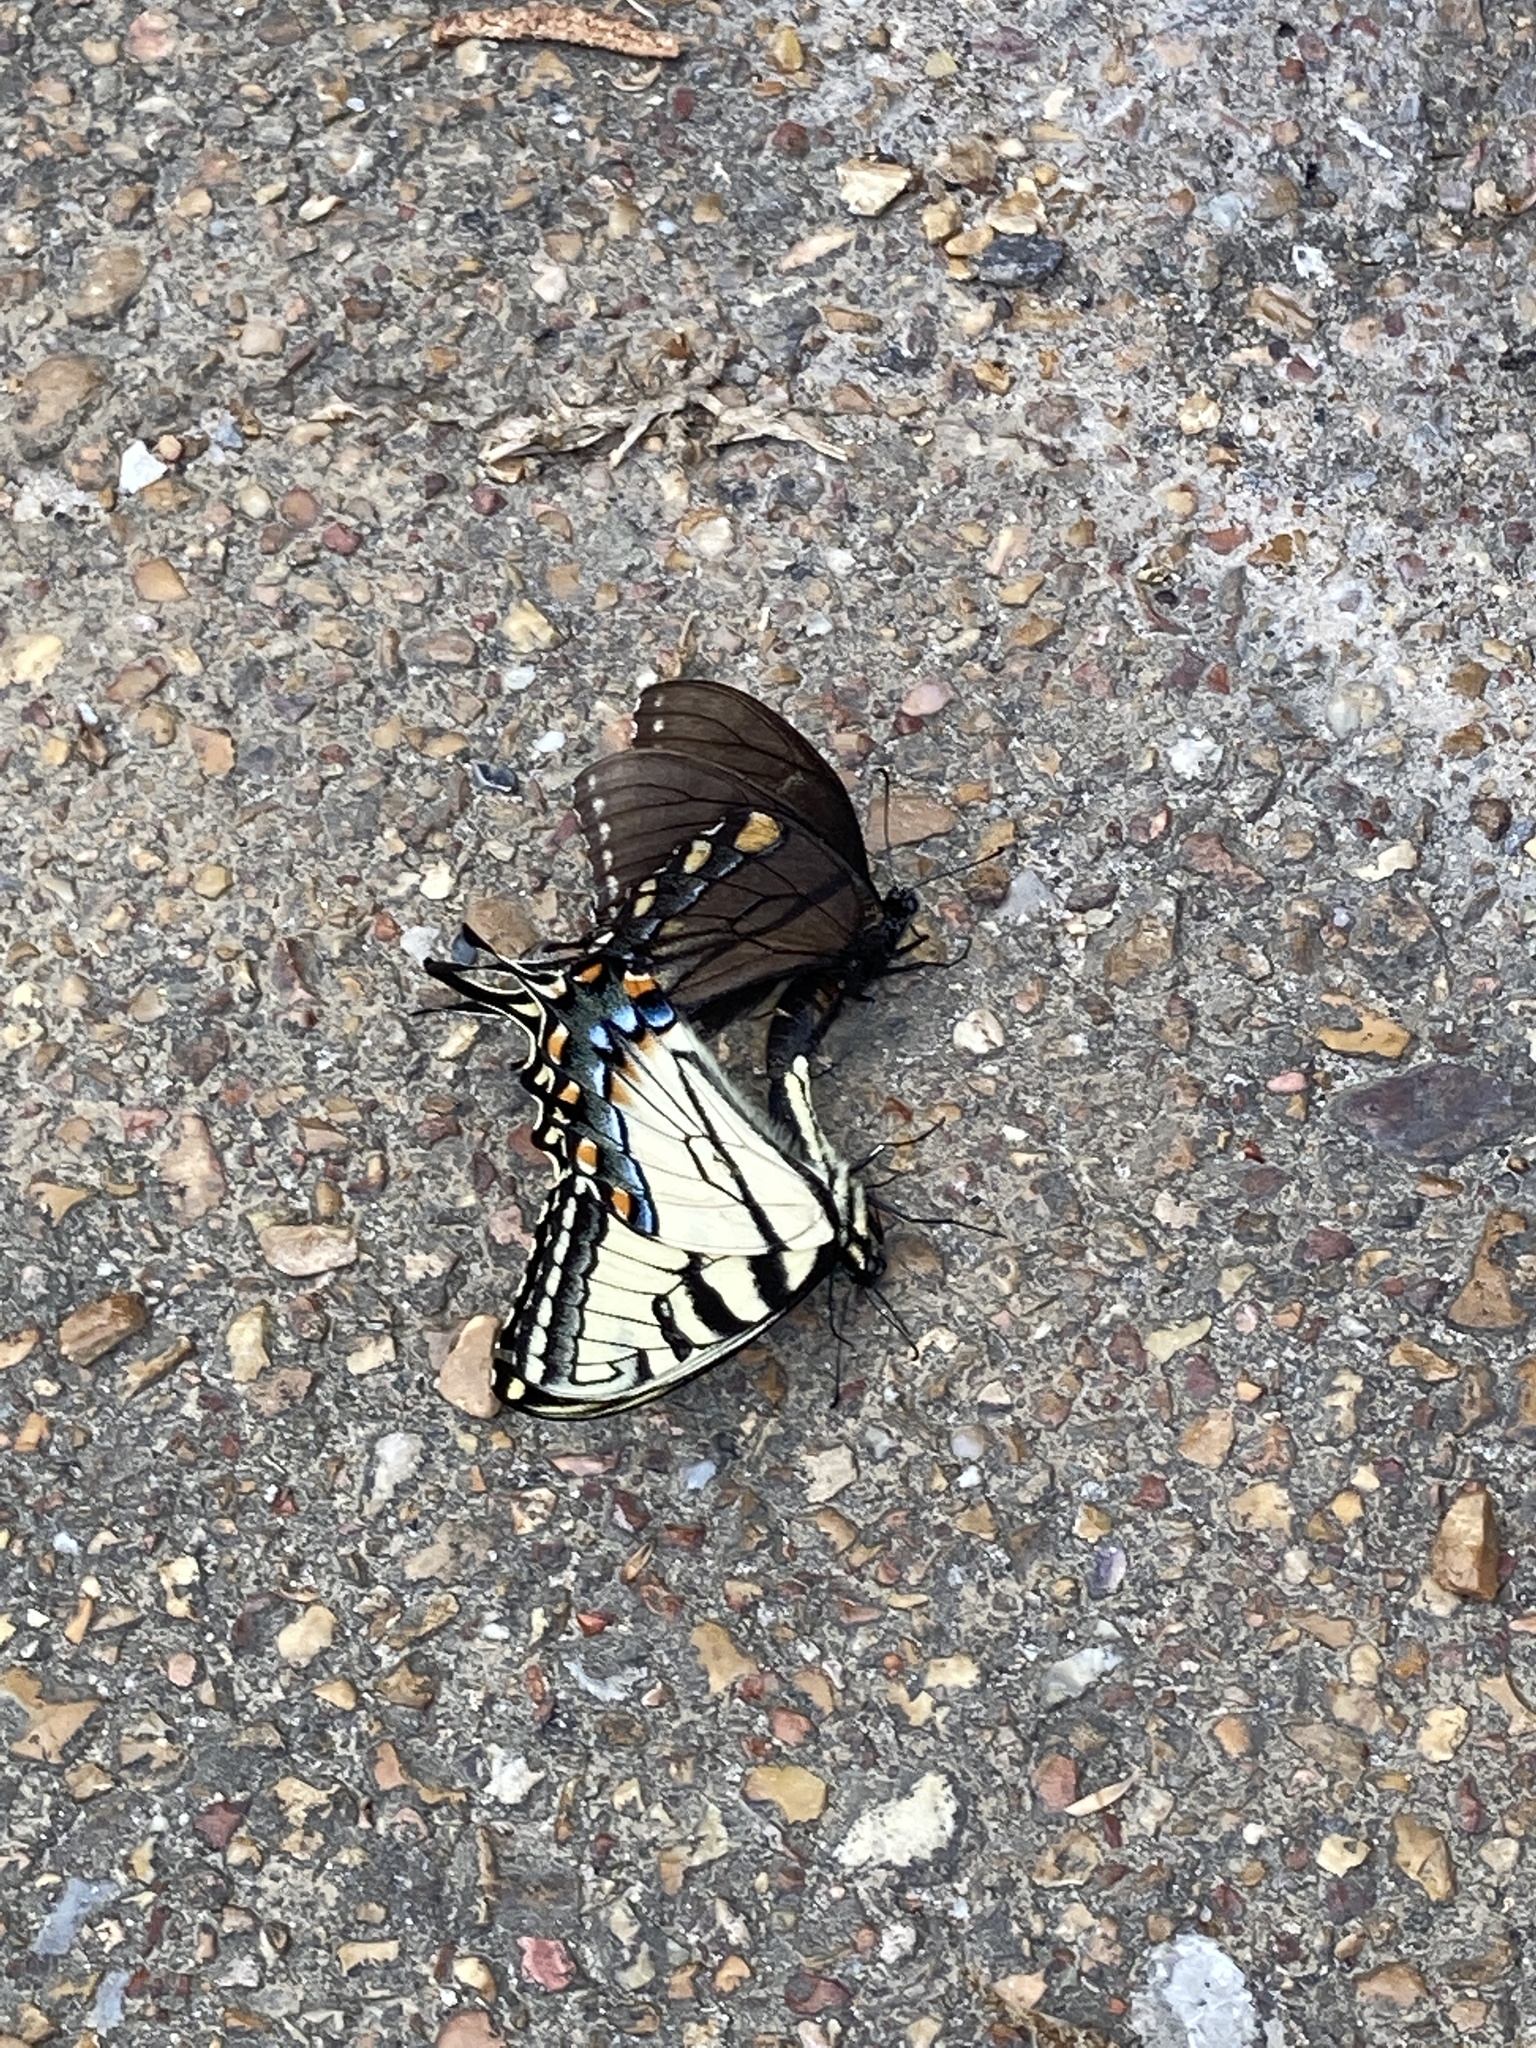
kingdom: Animalia
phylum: Arthropoda
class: Insecta
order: Lepidoptera
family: Papilionidae
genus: Papilio
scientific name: Papilio glaucus
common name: Tiger swallowtail
